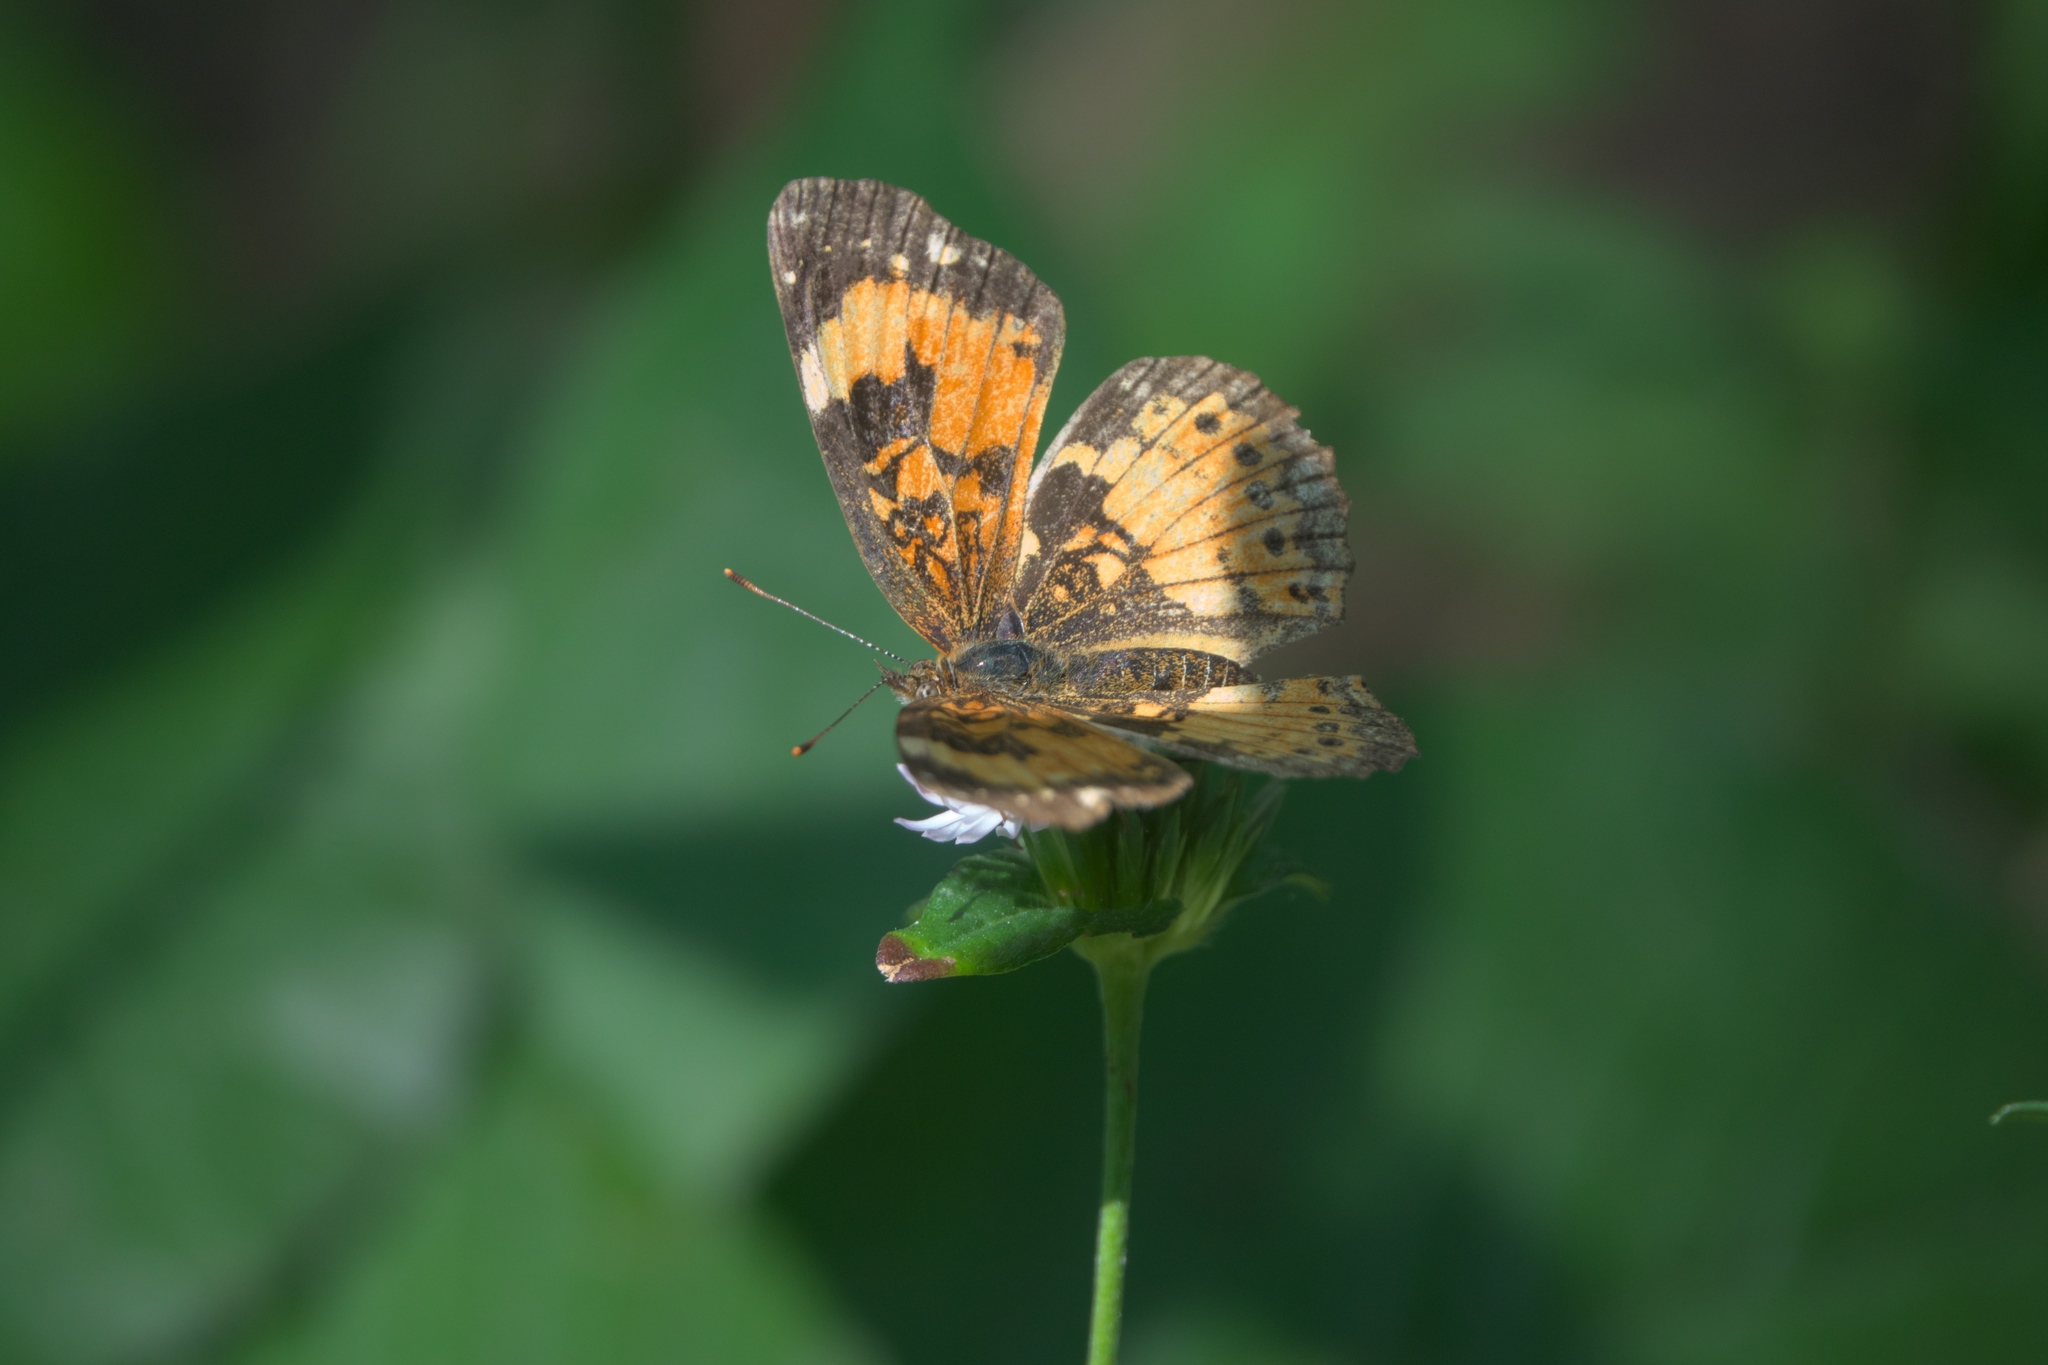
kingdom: Animalia
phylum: Arthropoda
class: Insecta
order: Lepidoptera
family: Nymphalidae
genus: Chlosyne
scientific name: Chlosyne nycteis
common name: Silvery checkerspot
